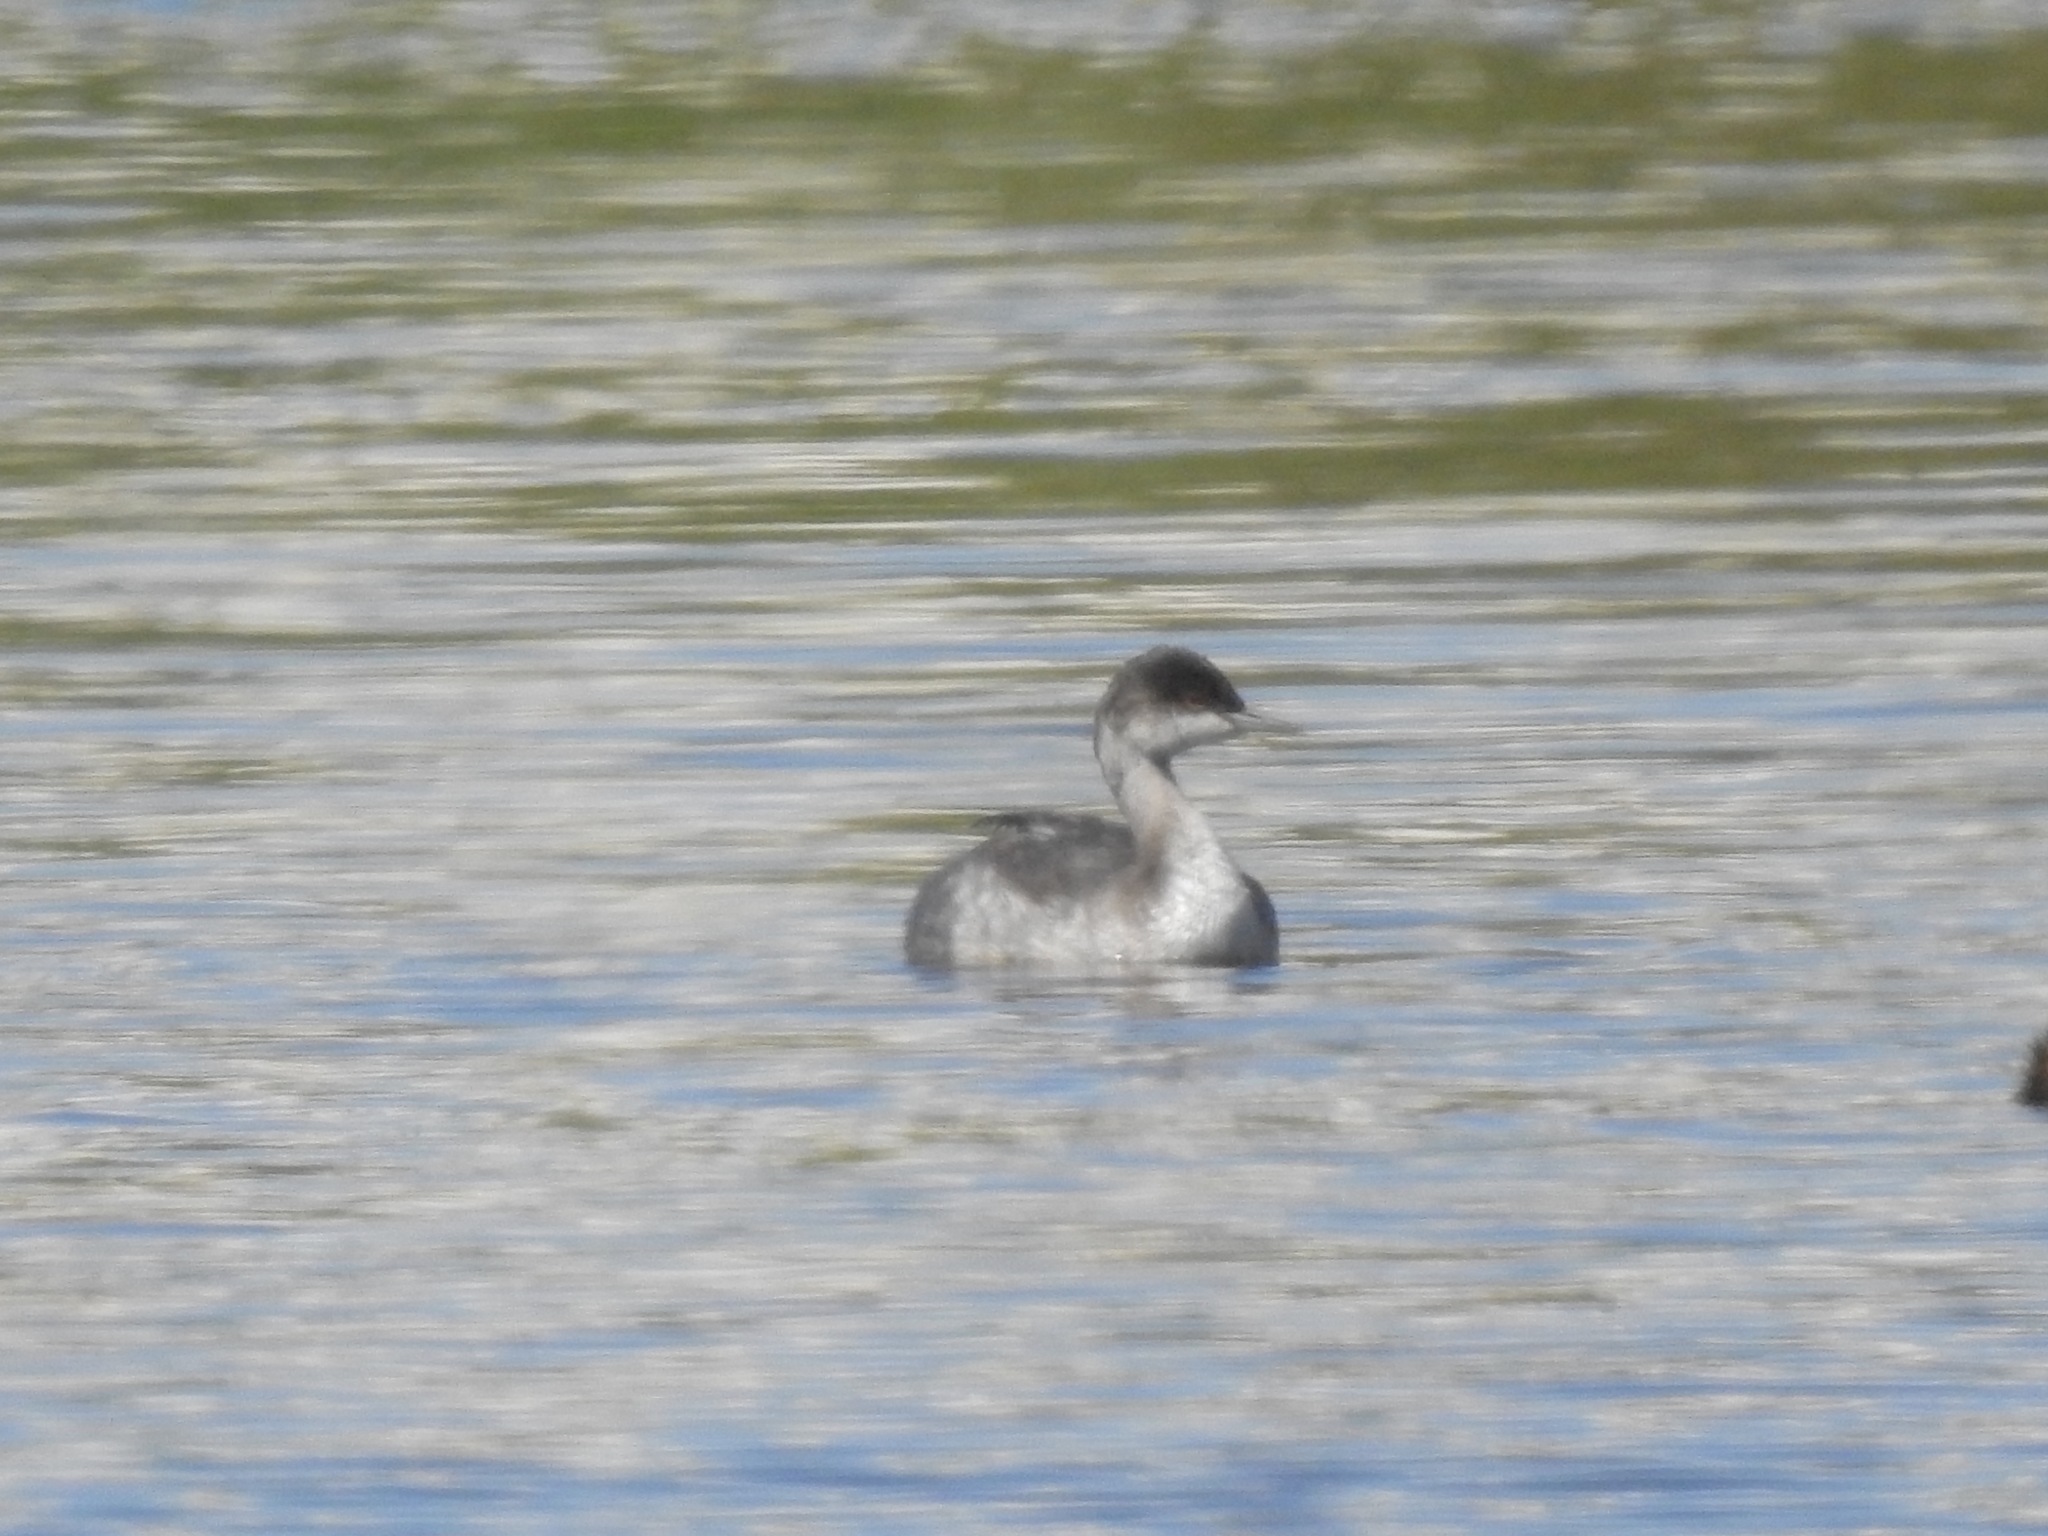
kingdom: Animalia
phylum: Chordata
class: Aves
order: Podicipediformes
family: Podicipedidae
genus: Podiceps
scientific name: Podiceps nigricollis
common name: Black-necked grebe
